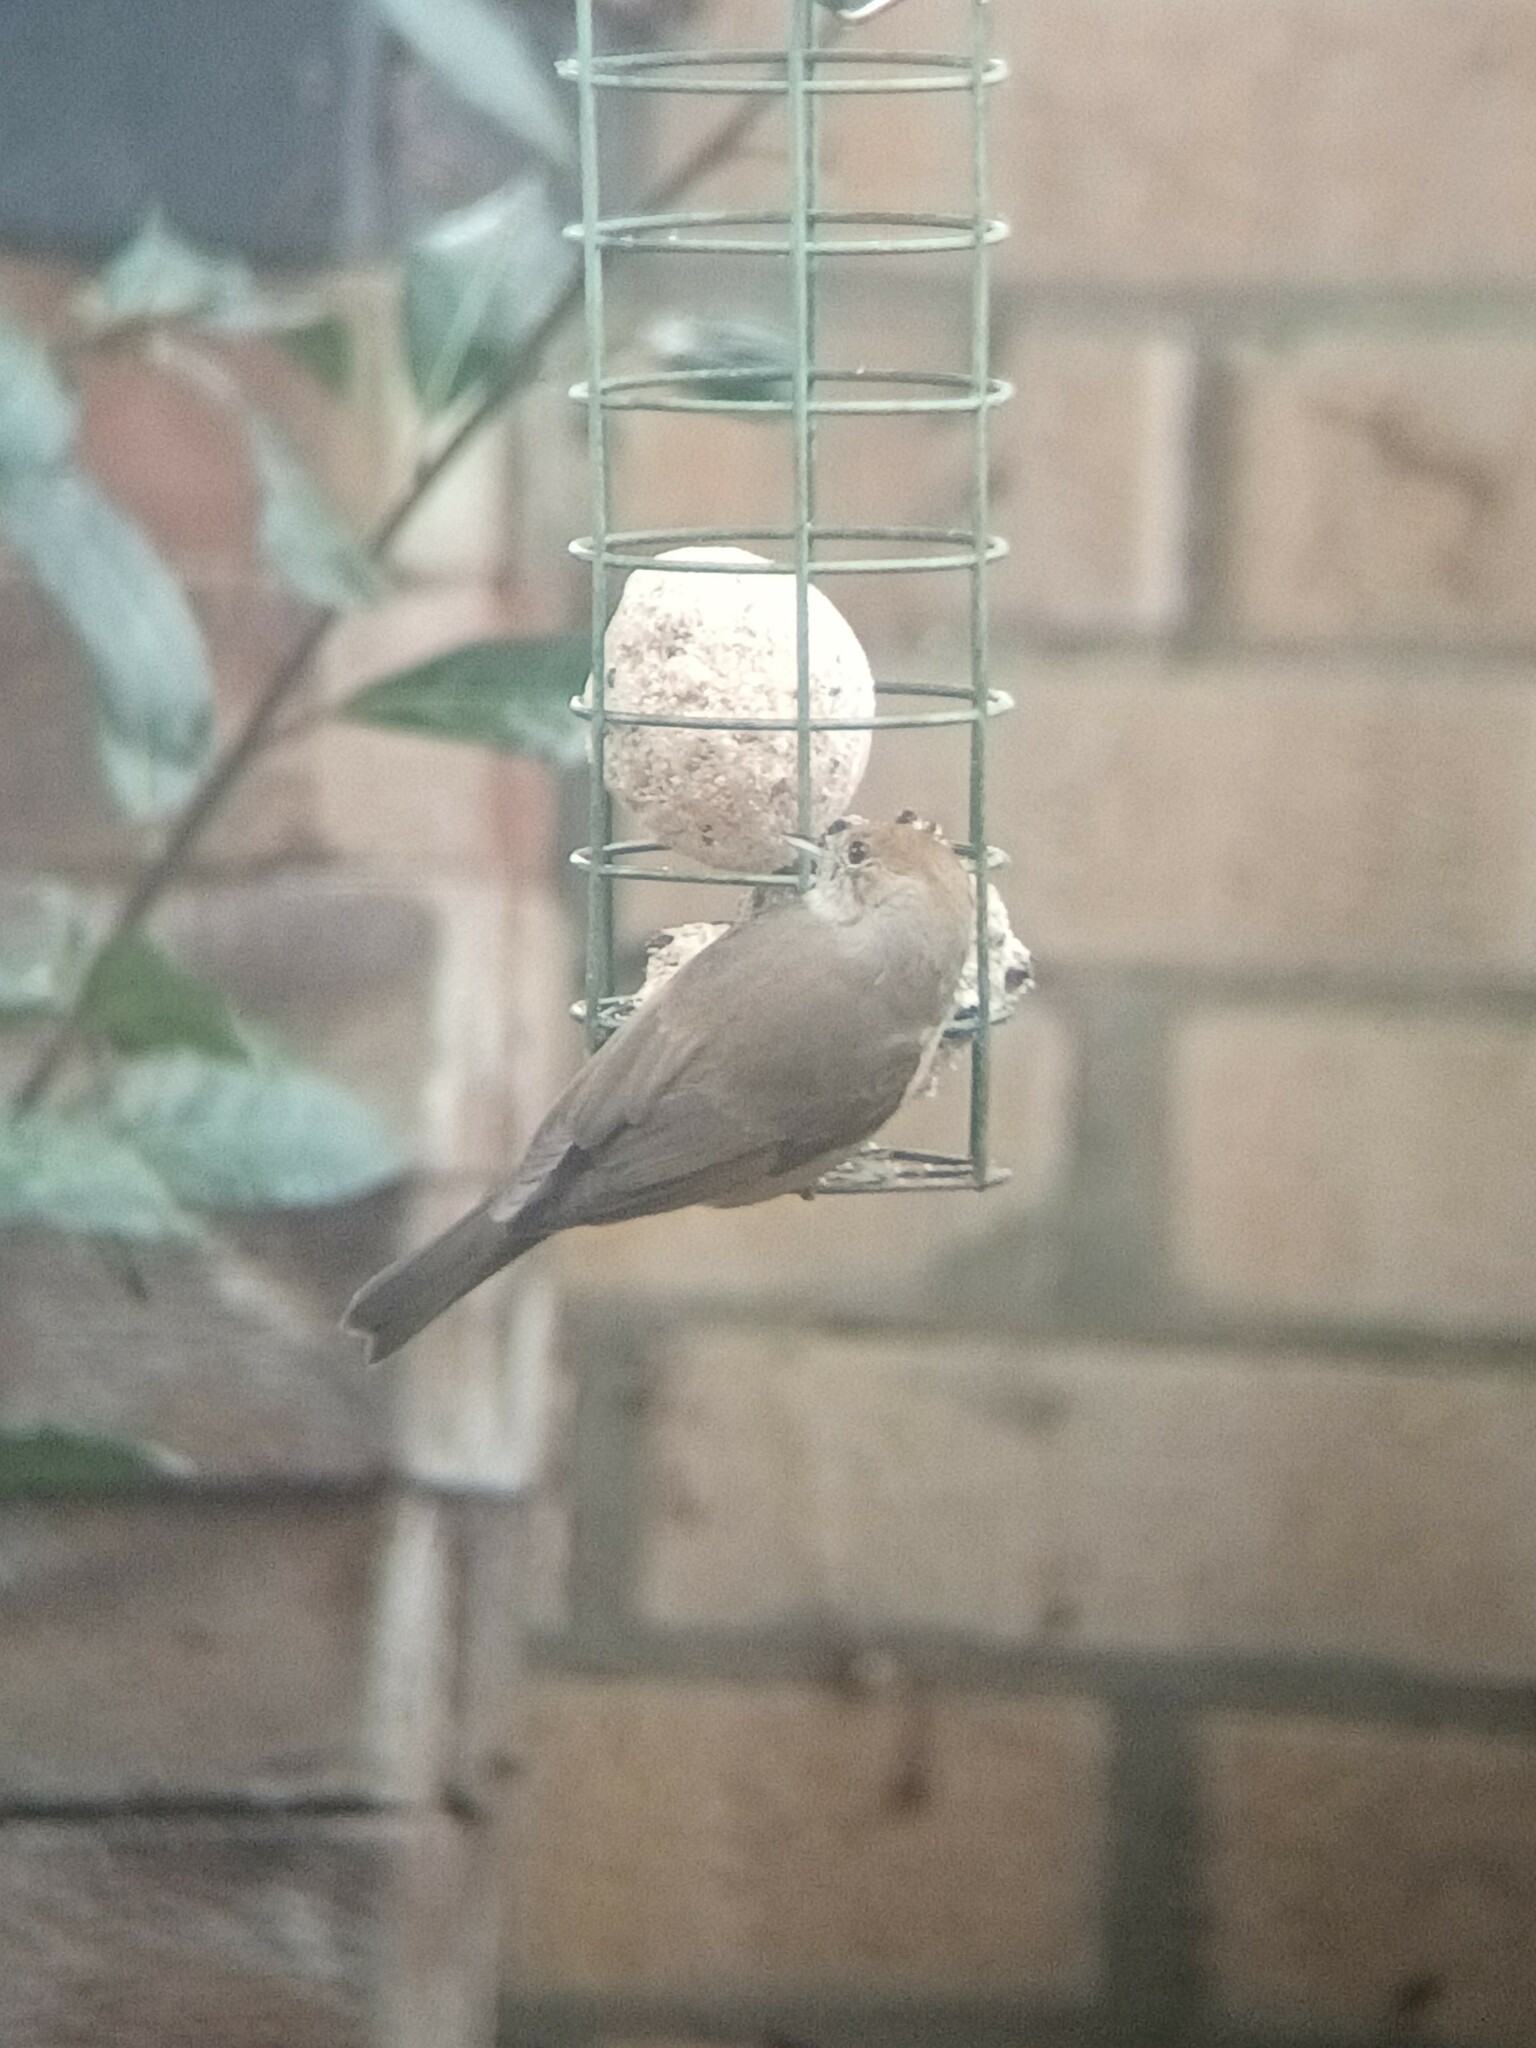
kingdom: Animalia
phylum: Chordata
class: Aves
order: Passeriformes
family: Sylviidae
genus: Sylvia
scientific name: Sylvia atricapilla
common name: Eurasian blackcap
